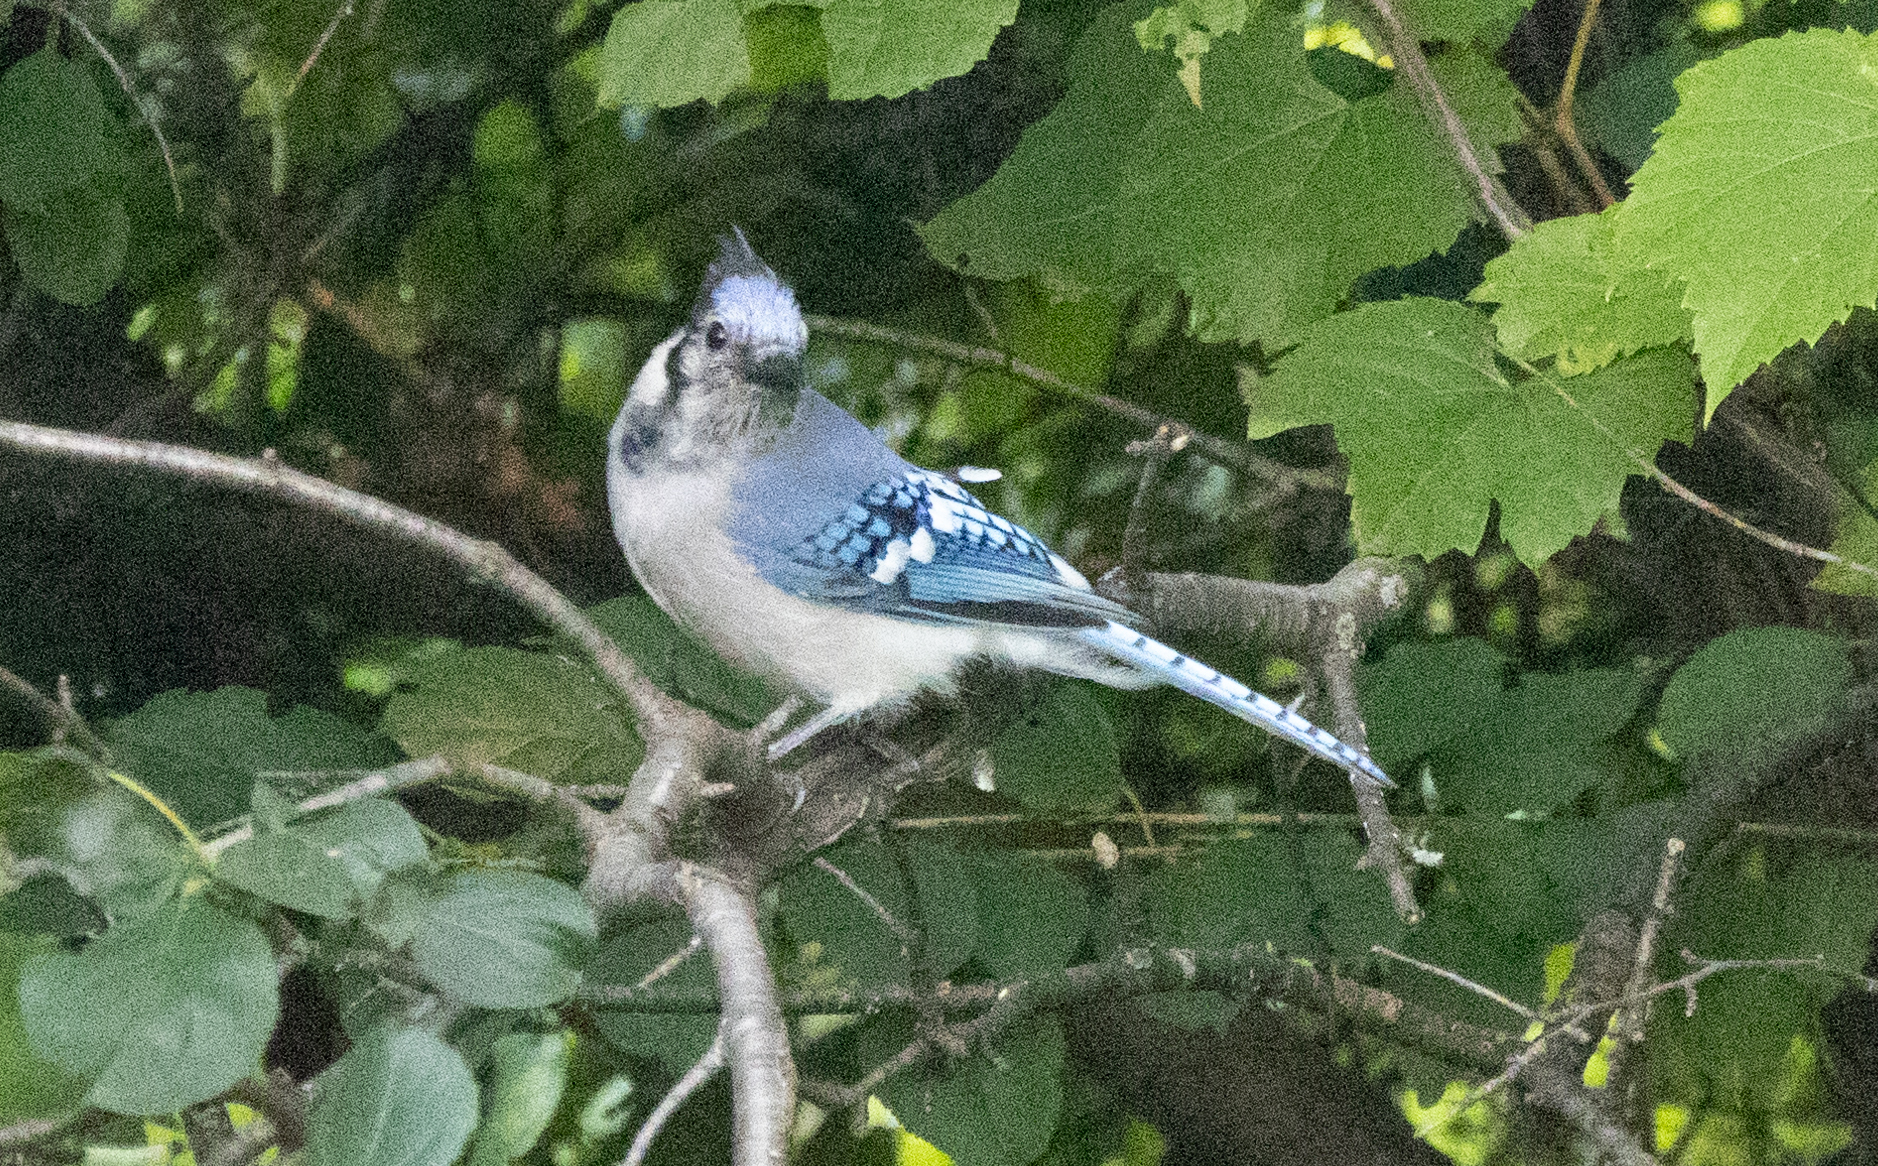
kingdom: Animalia
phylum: Chordata
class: Aves
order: Passeriformes
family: Corvidae
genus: Cyanocitta
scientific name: Cyanocitta cristata
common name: Blue jay
